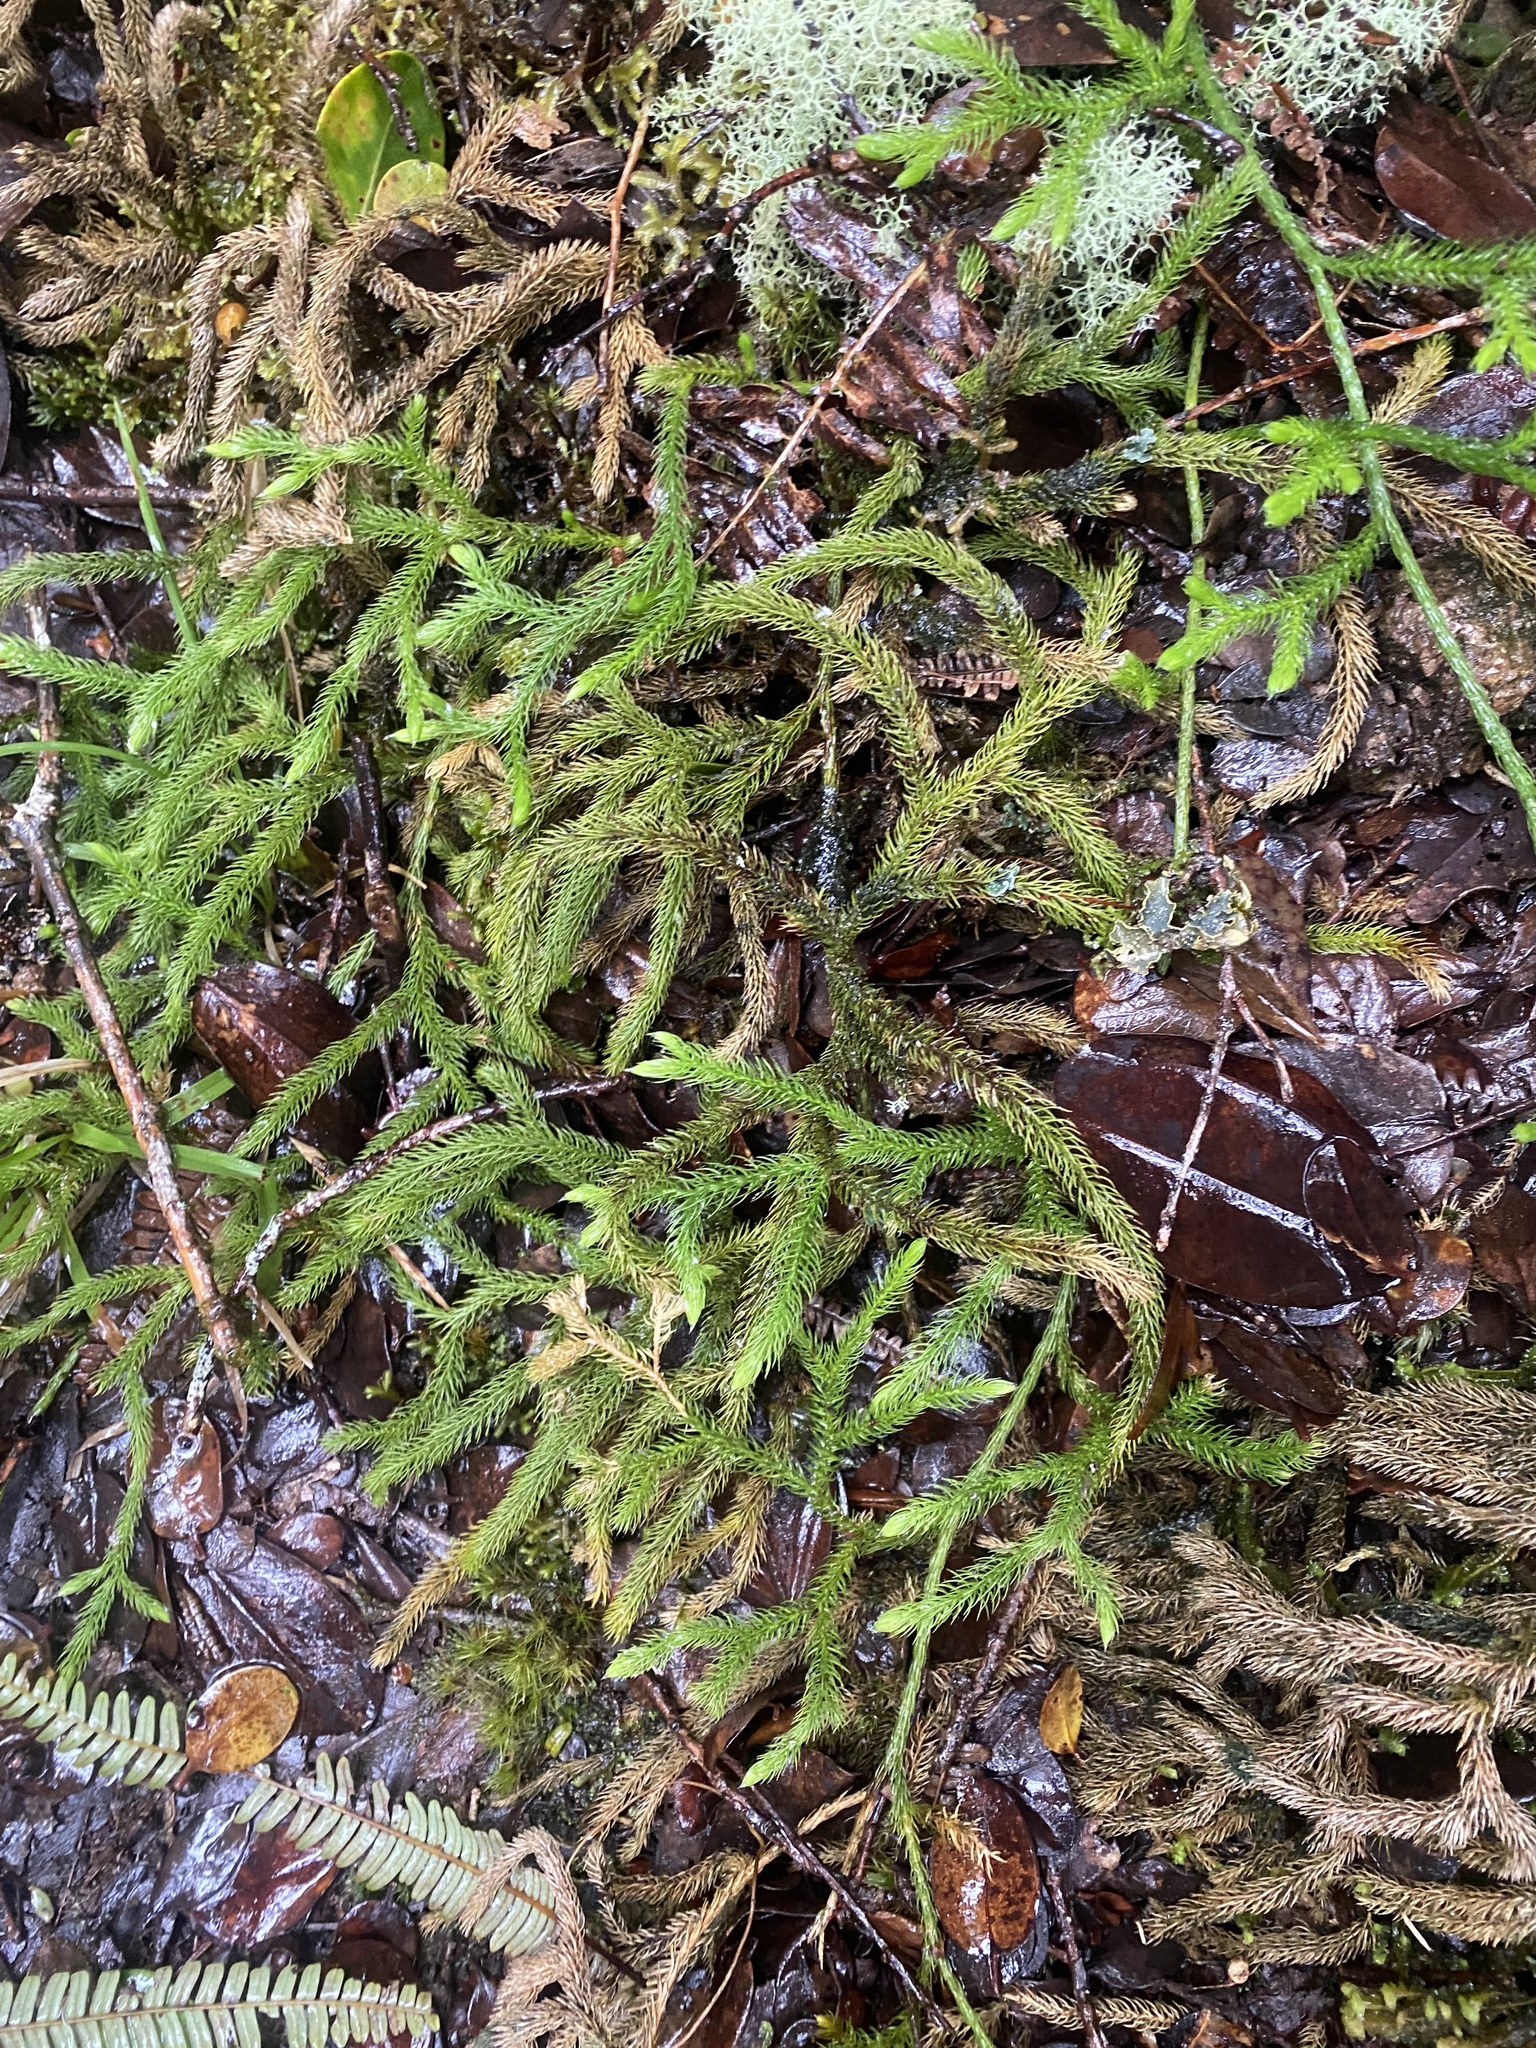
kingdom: Plantae
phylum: Tracheophyta
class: Lycopodiopsida
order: Lycopodiales
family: Lycopodiaceae
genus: Palhinhaea
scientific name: Palhinhaea cernua
